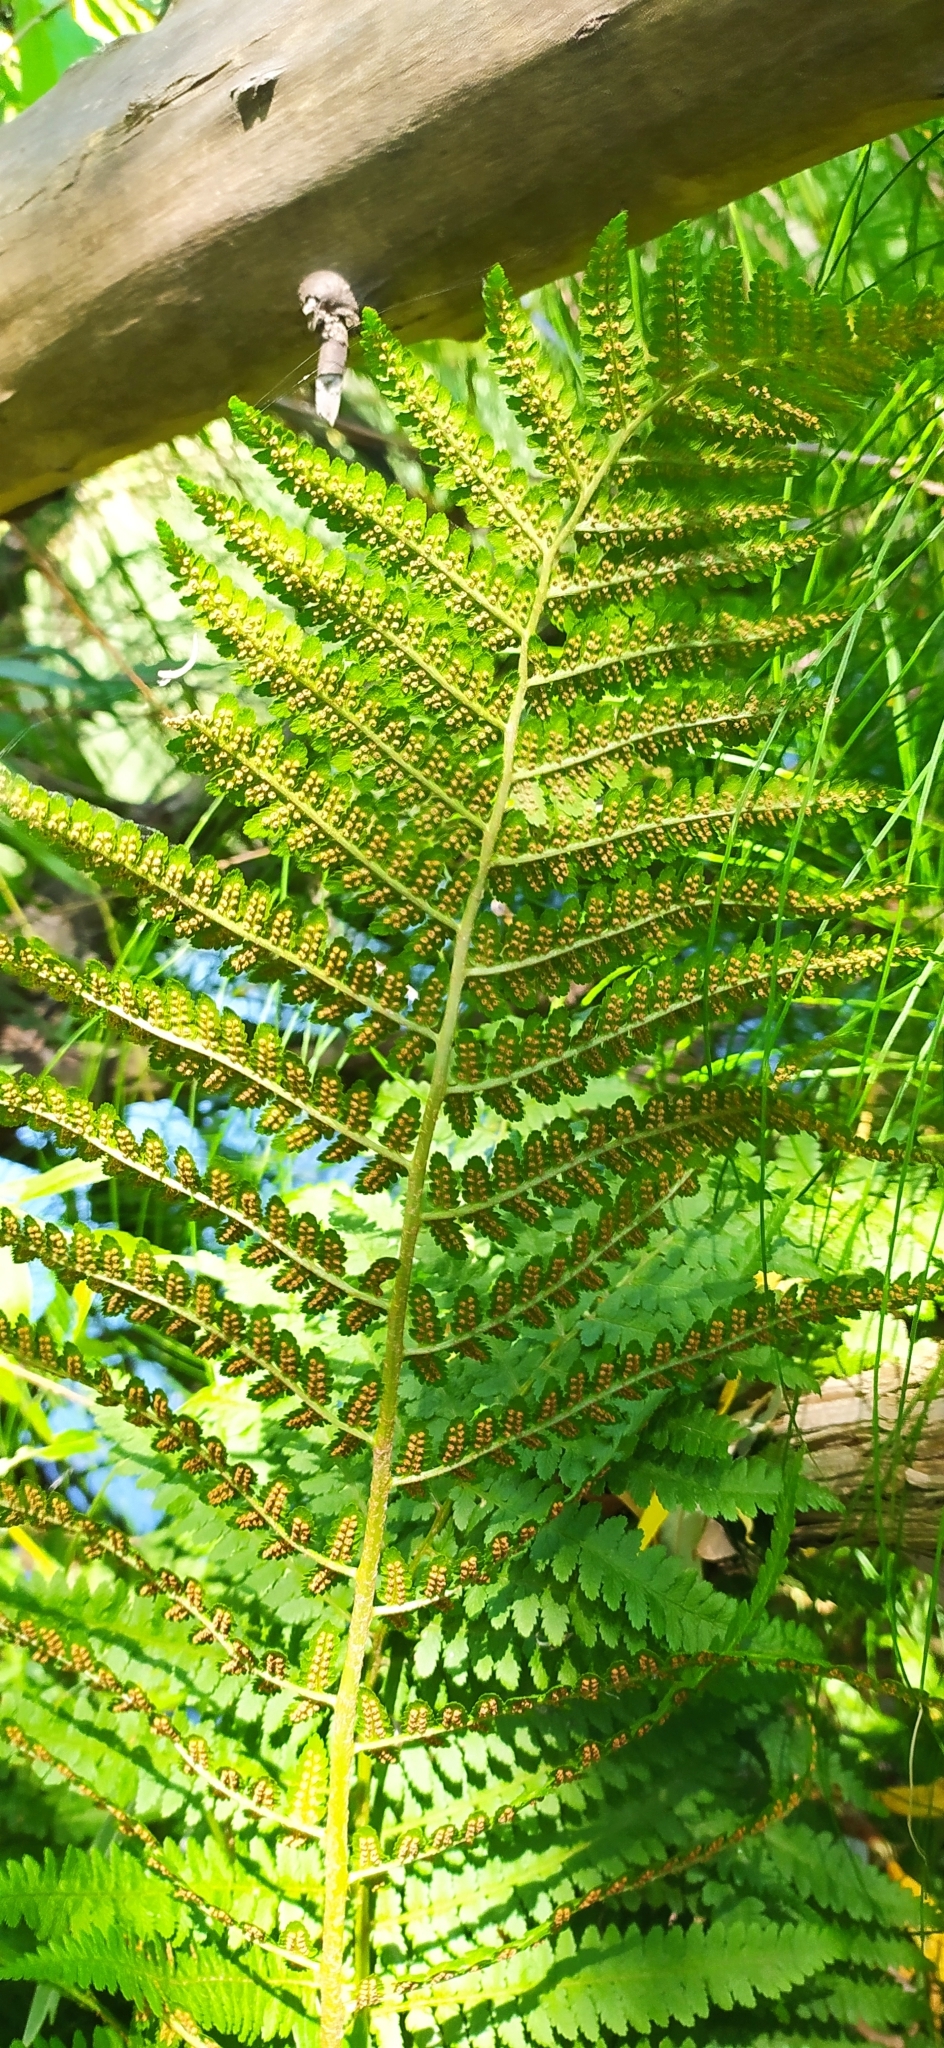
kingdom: Plantae
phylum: Tracheophyta
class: Polypodiopsida
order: Polypodiales
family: Dryopteridaceae
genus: Dryopteris
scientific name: Dryopteris filix-mas
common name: Male fern
